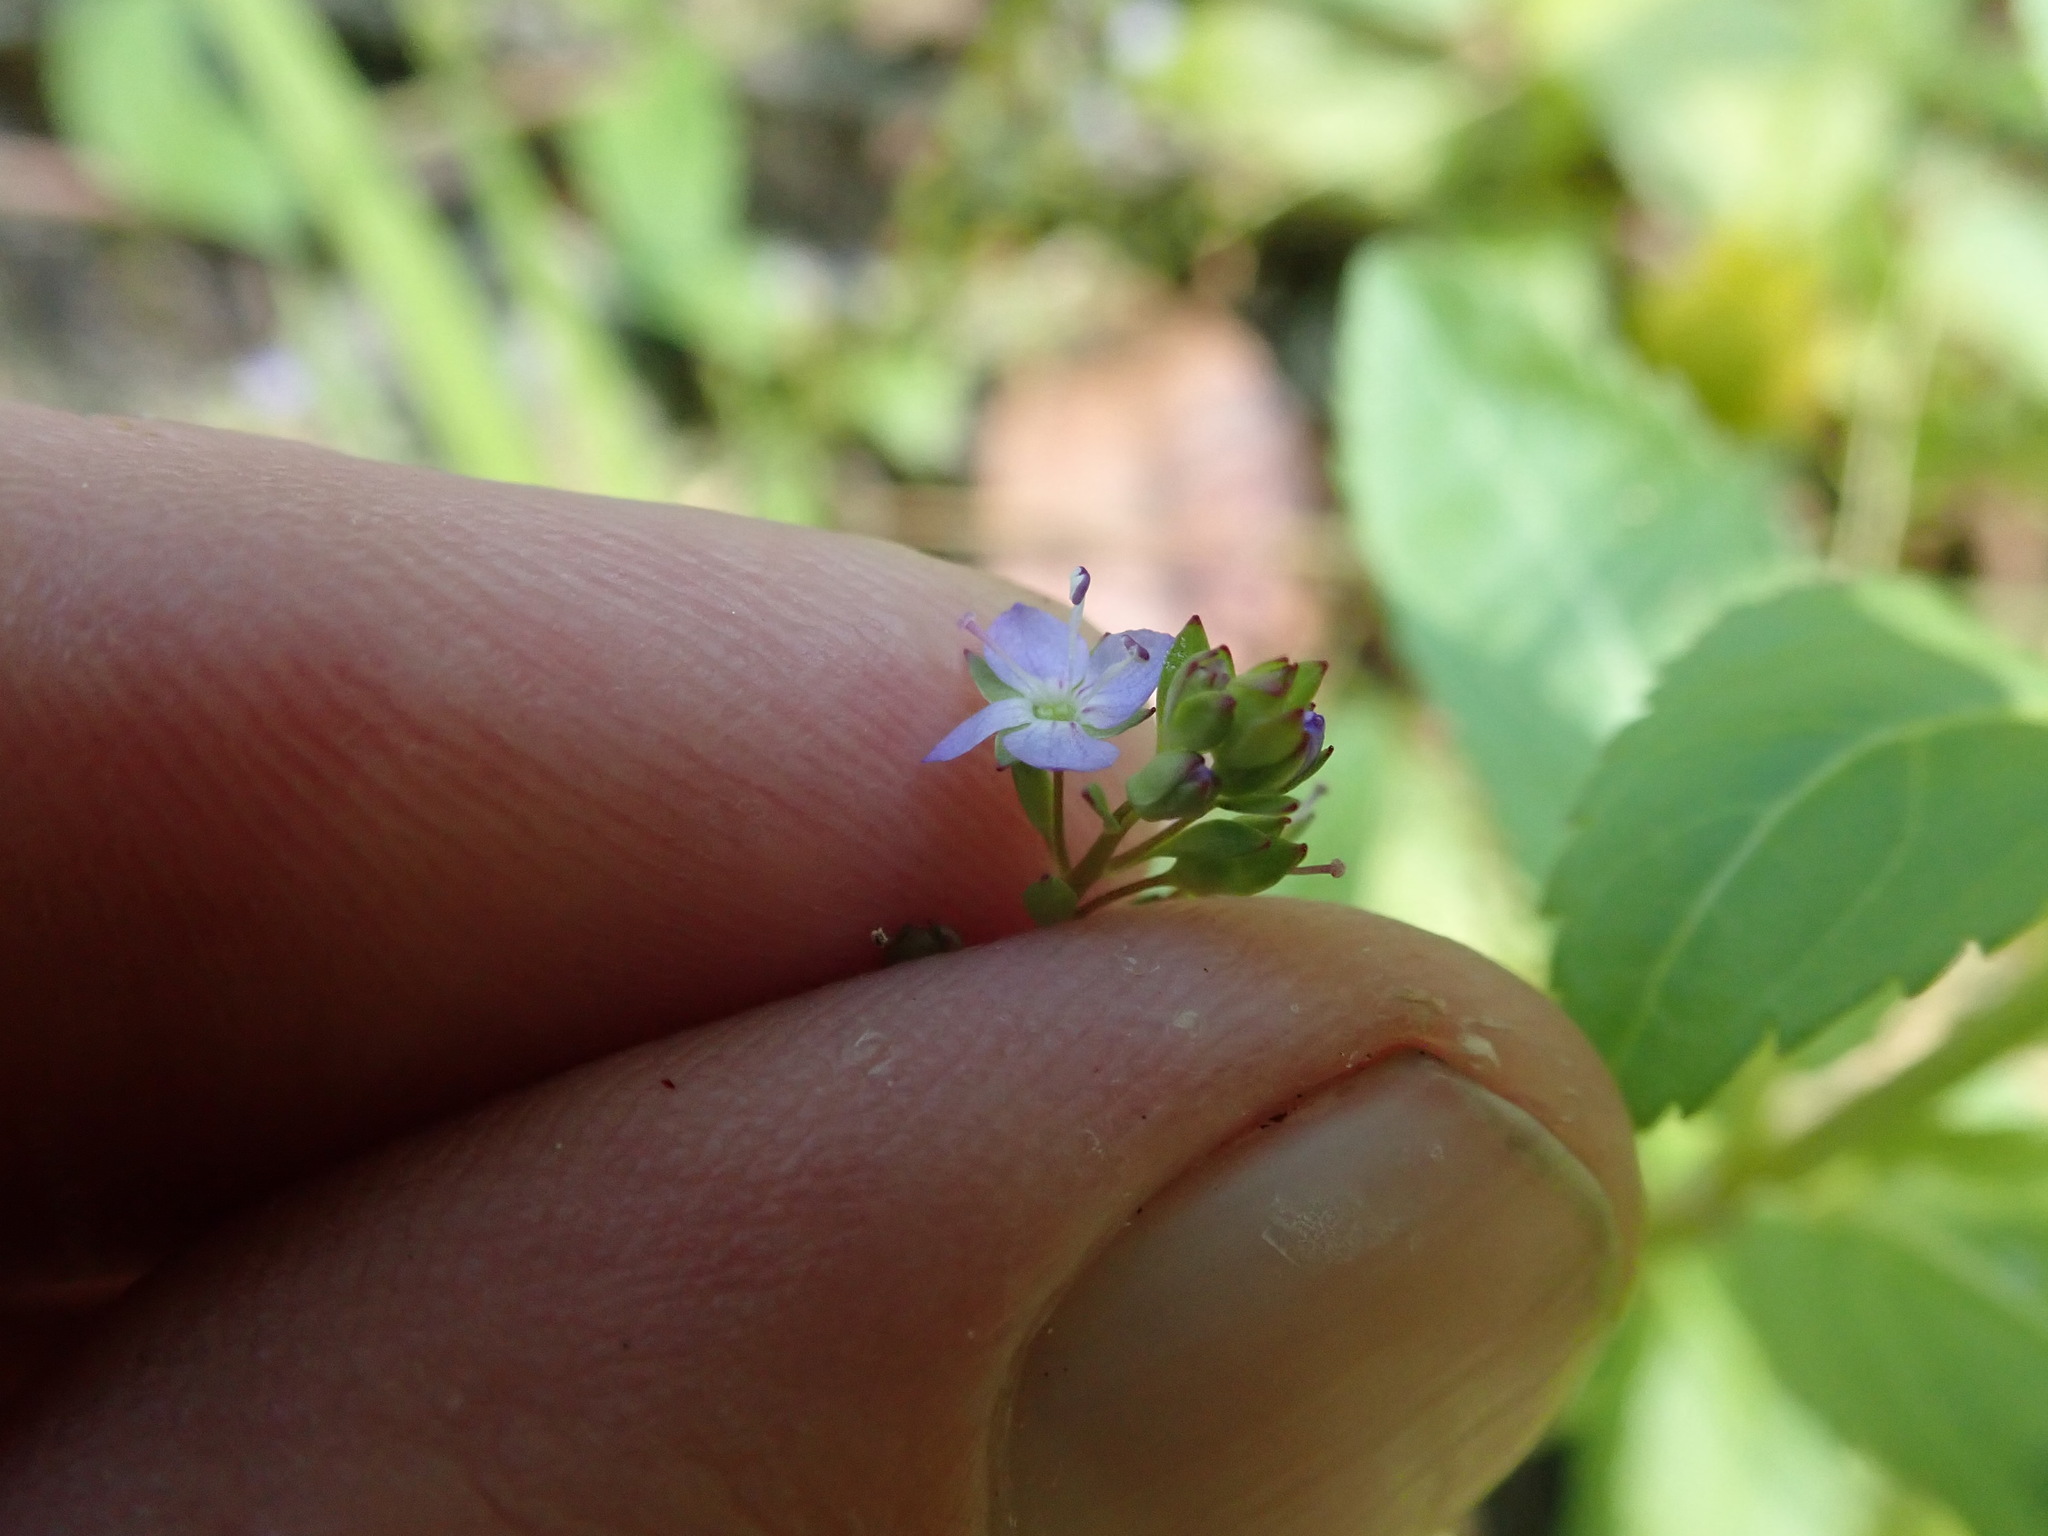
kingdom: Plantae
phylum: Tracheophyta
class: Magnoliopsida
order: Lamiales
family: Plantaginaceae
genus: Veronica
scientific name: Veronica americana
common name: American brooklime
